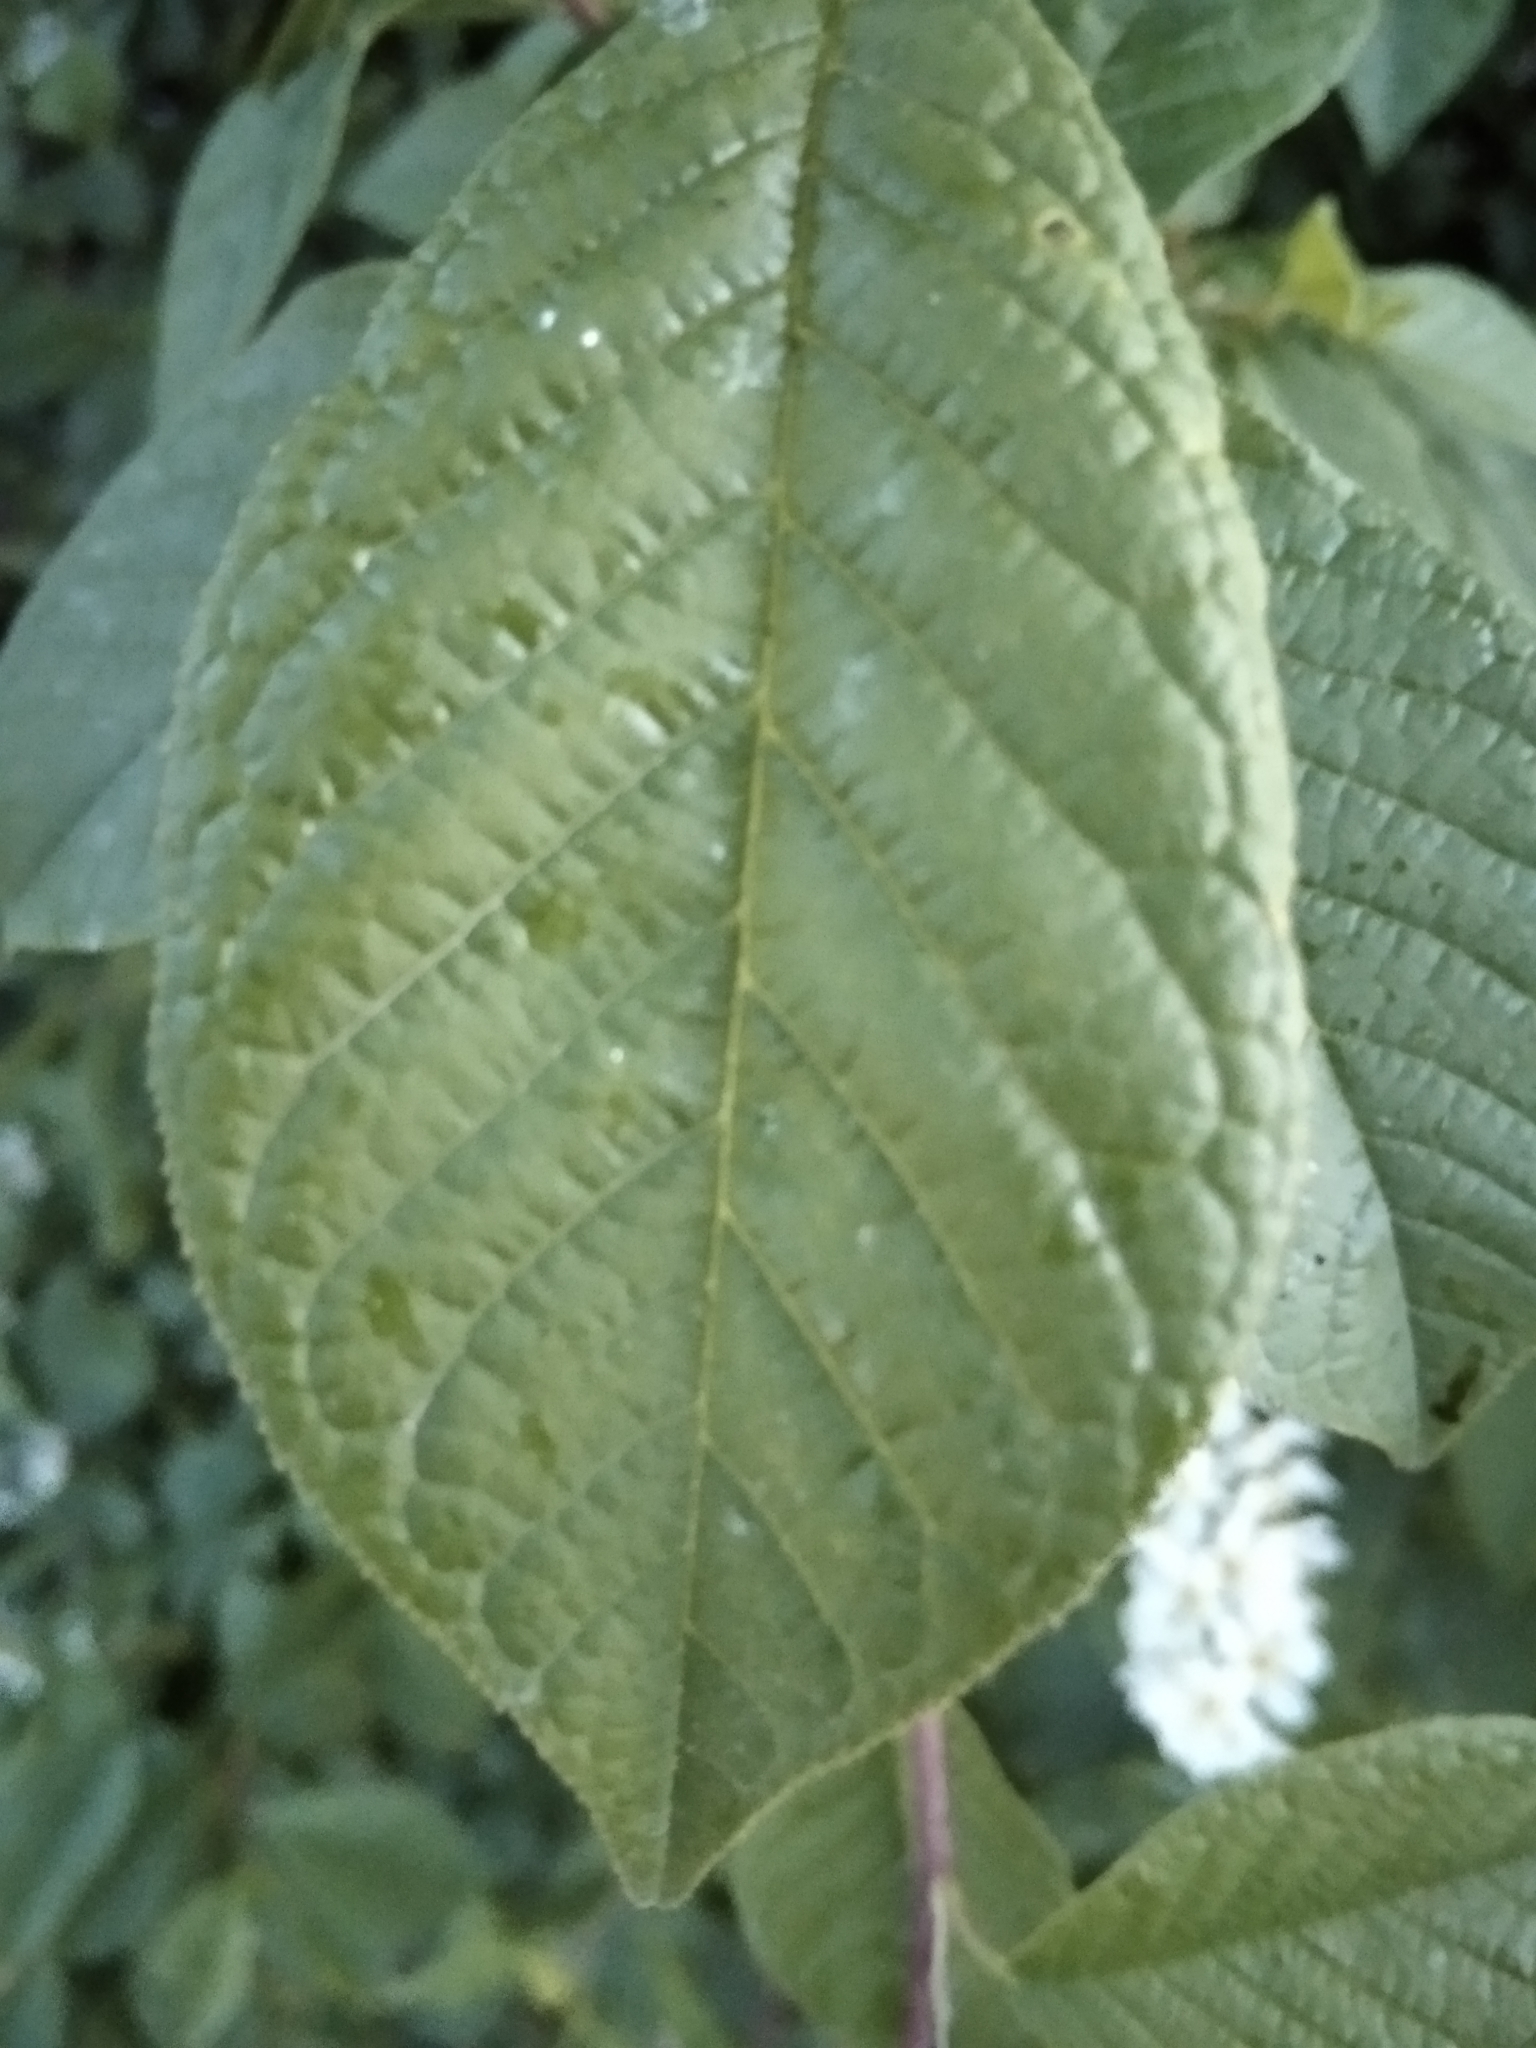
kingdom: Plantae
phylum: Tracheophyta
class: Magnoliopsida
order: Rosales
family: Rosaceae
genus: Prunus
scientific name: Prunus padus
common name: Bird cherry
